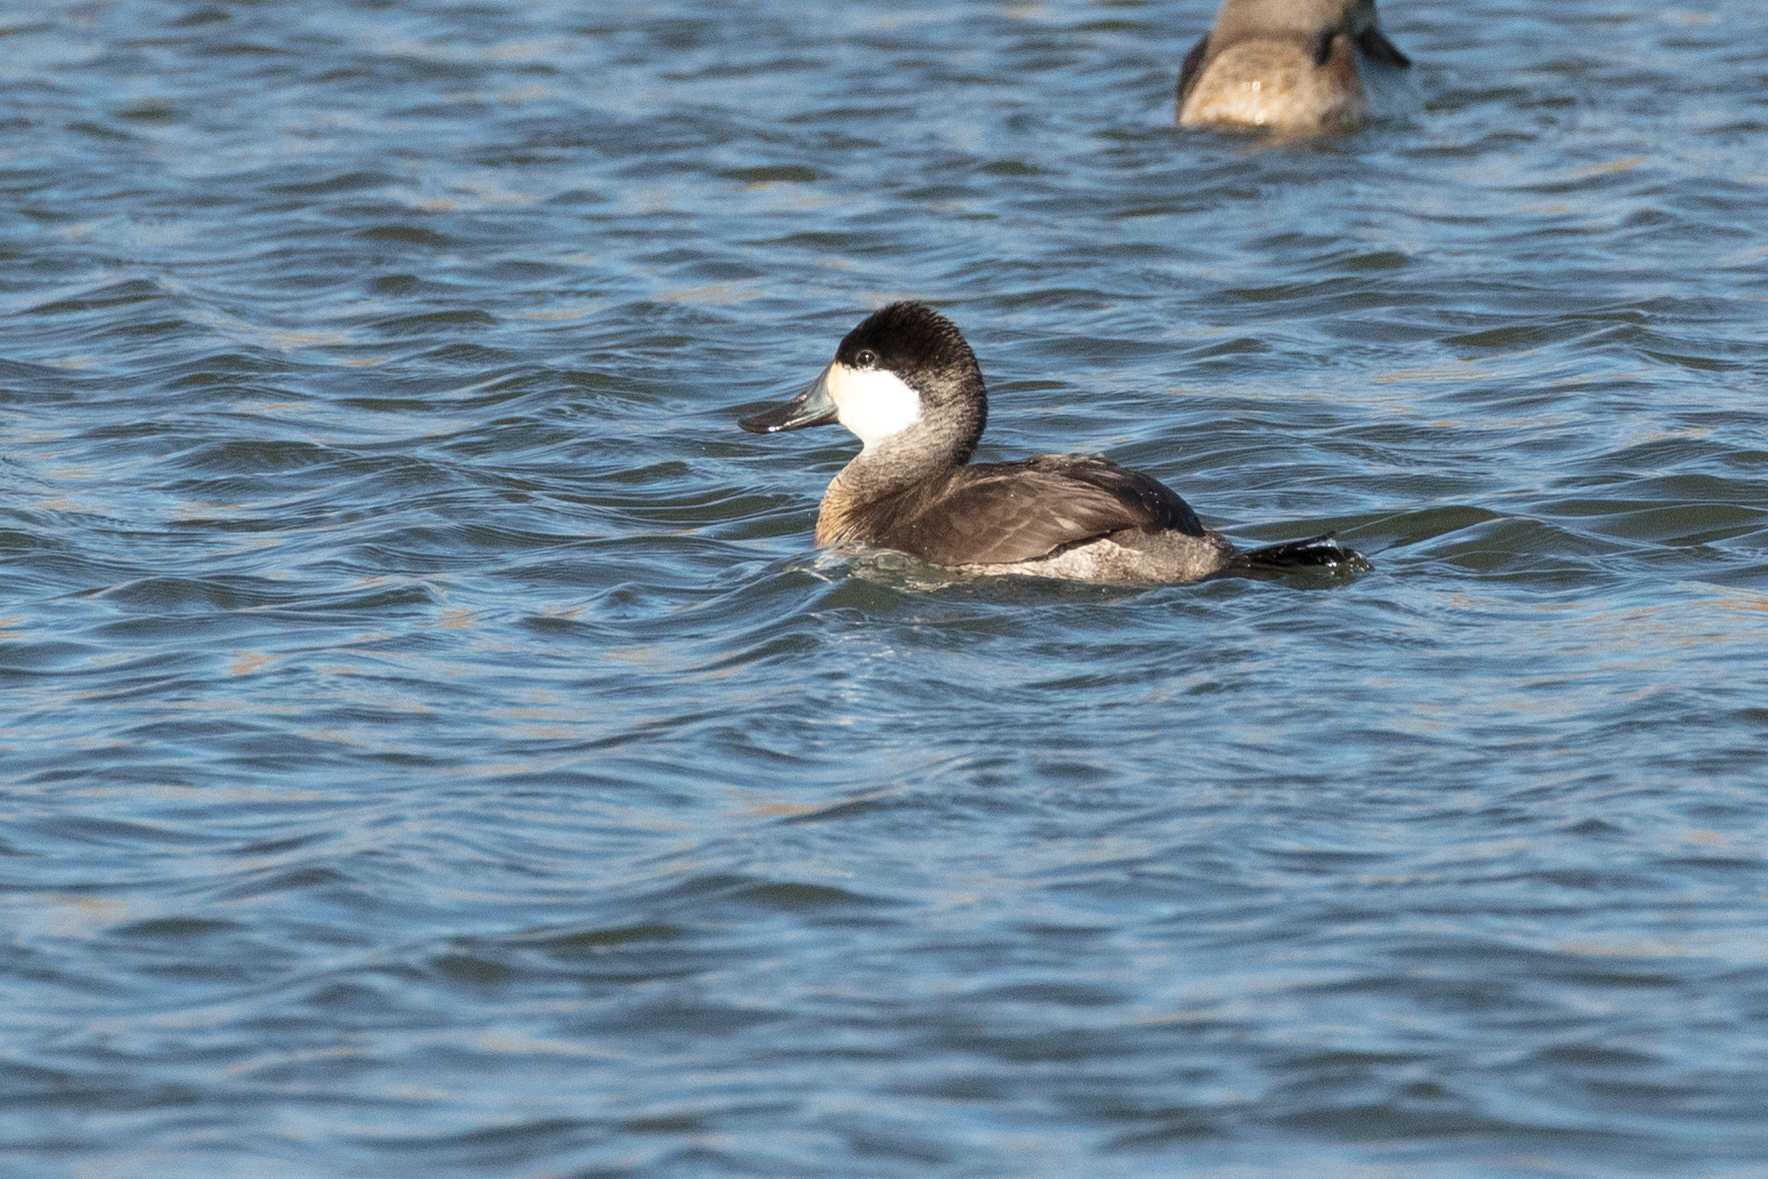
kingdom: Animalia
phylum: Chordata
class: Aves
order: Anseriformes
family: Anatidae
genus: Oxyura
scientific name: Oxyura jamaicensis
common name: Ruddy duck
